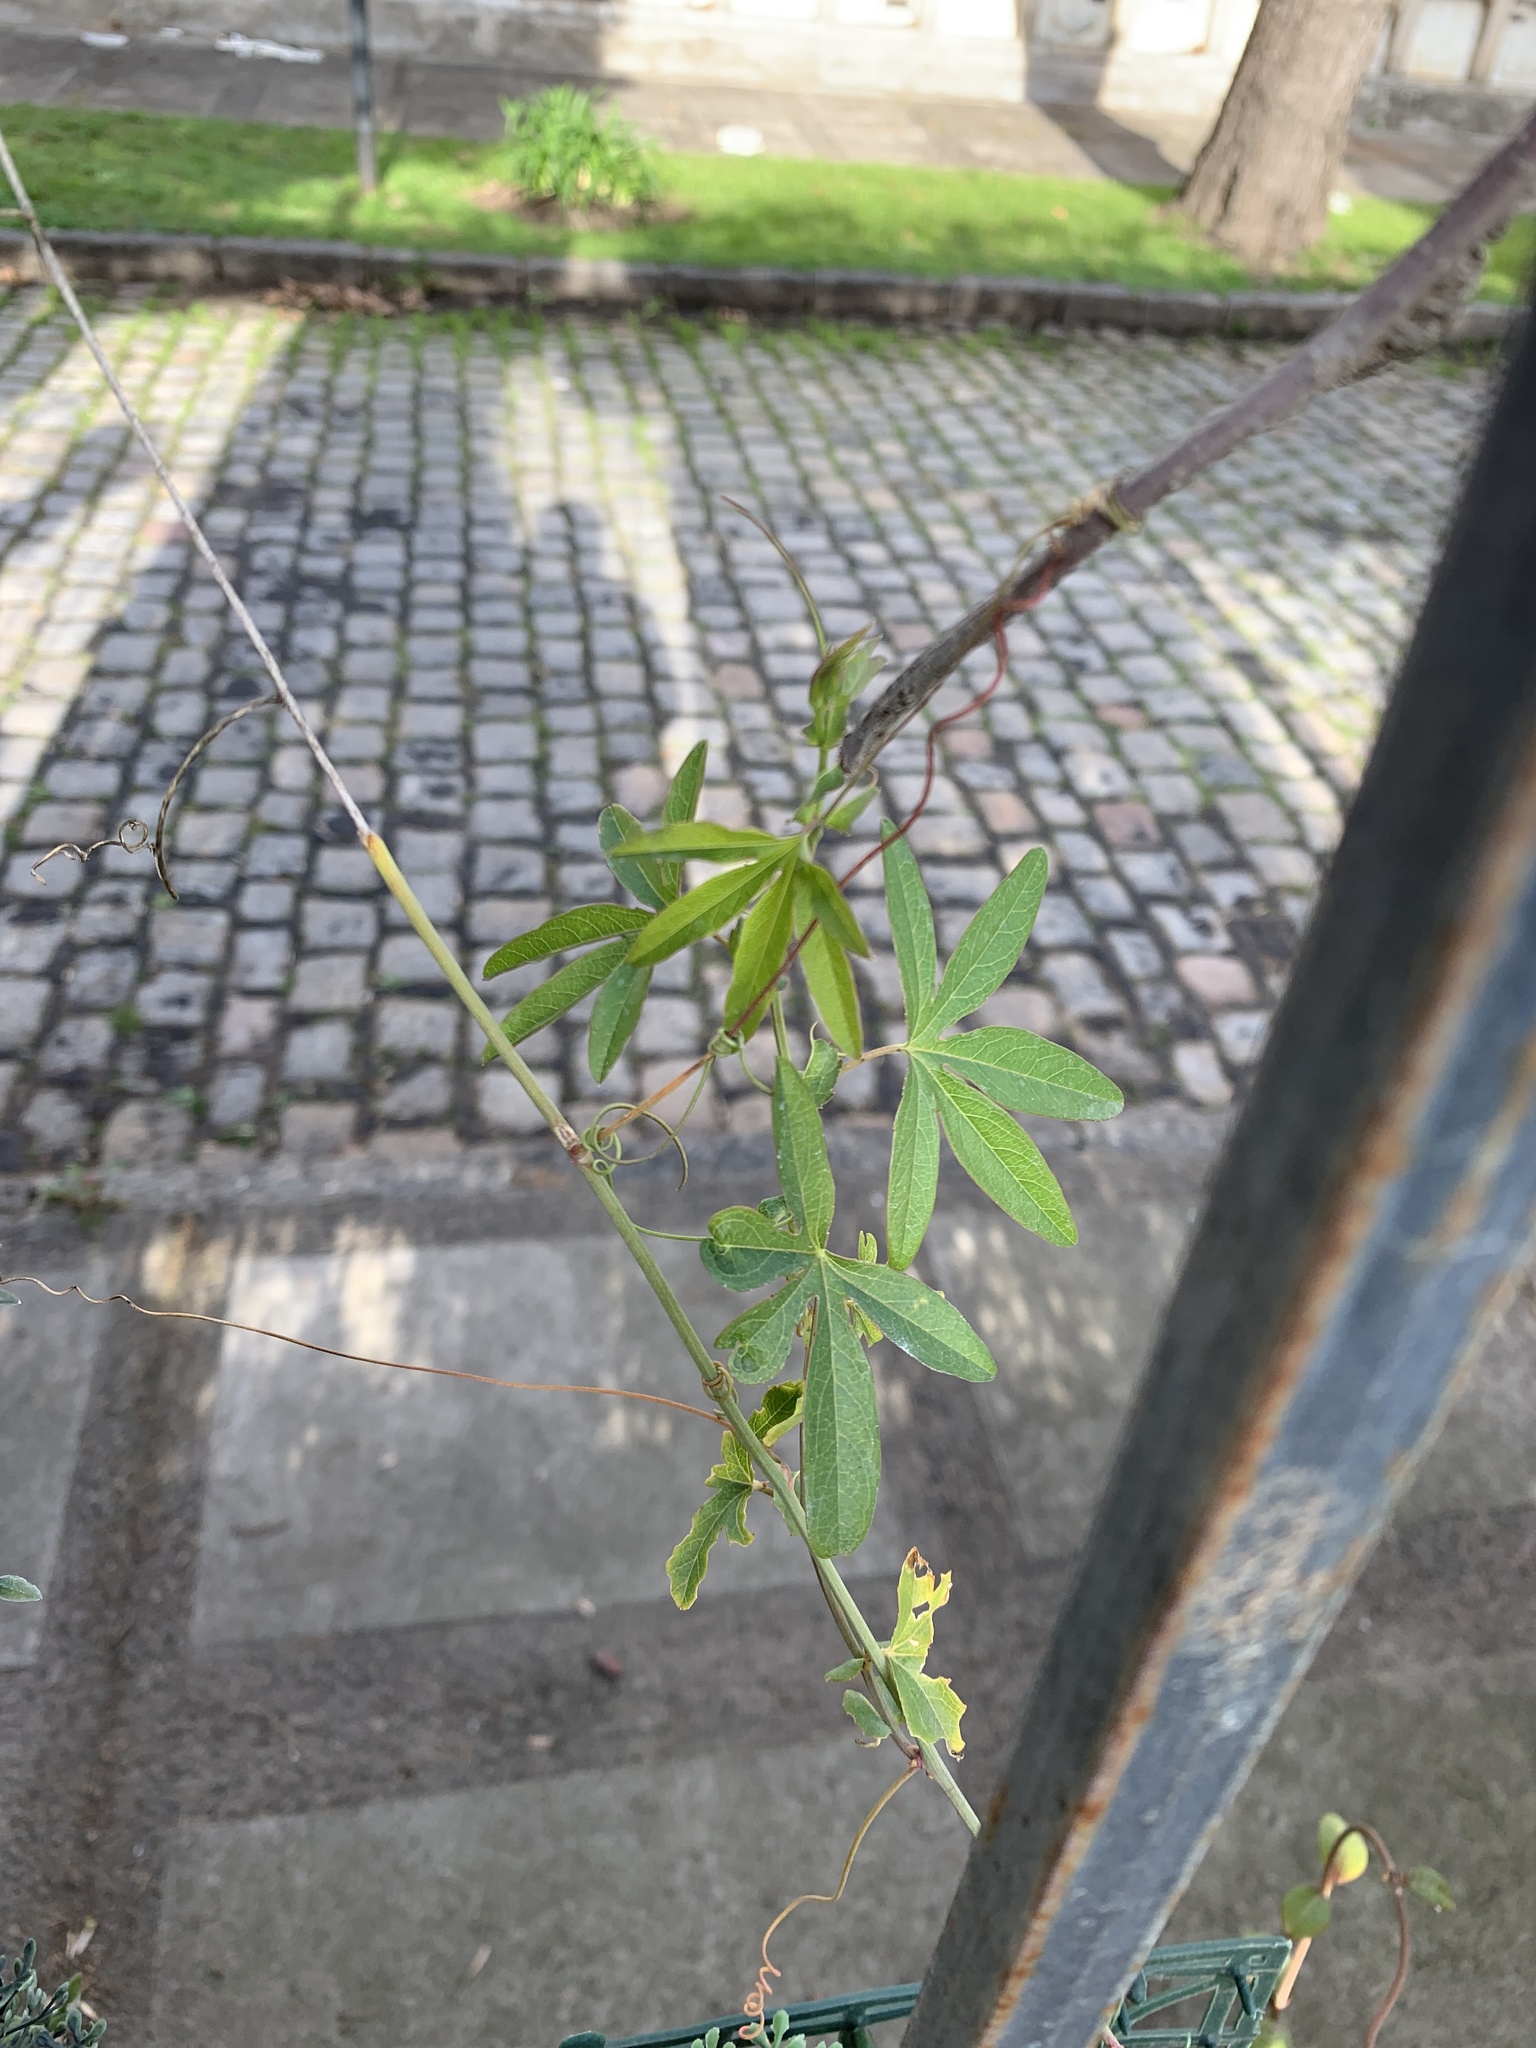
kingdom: Plantae
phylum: Tracheophyta
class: Magnoliopsida
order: Malpighiales
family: Passifloraceae
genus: Passiflora
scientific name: Passiflora caerulea
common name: Blue passionflower
